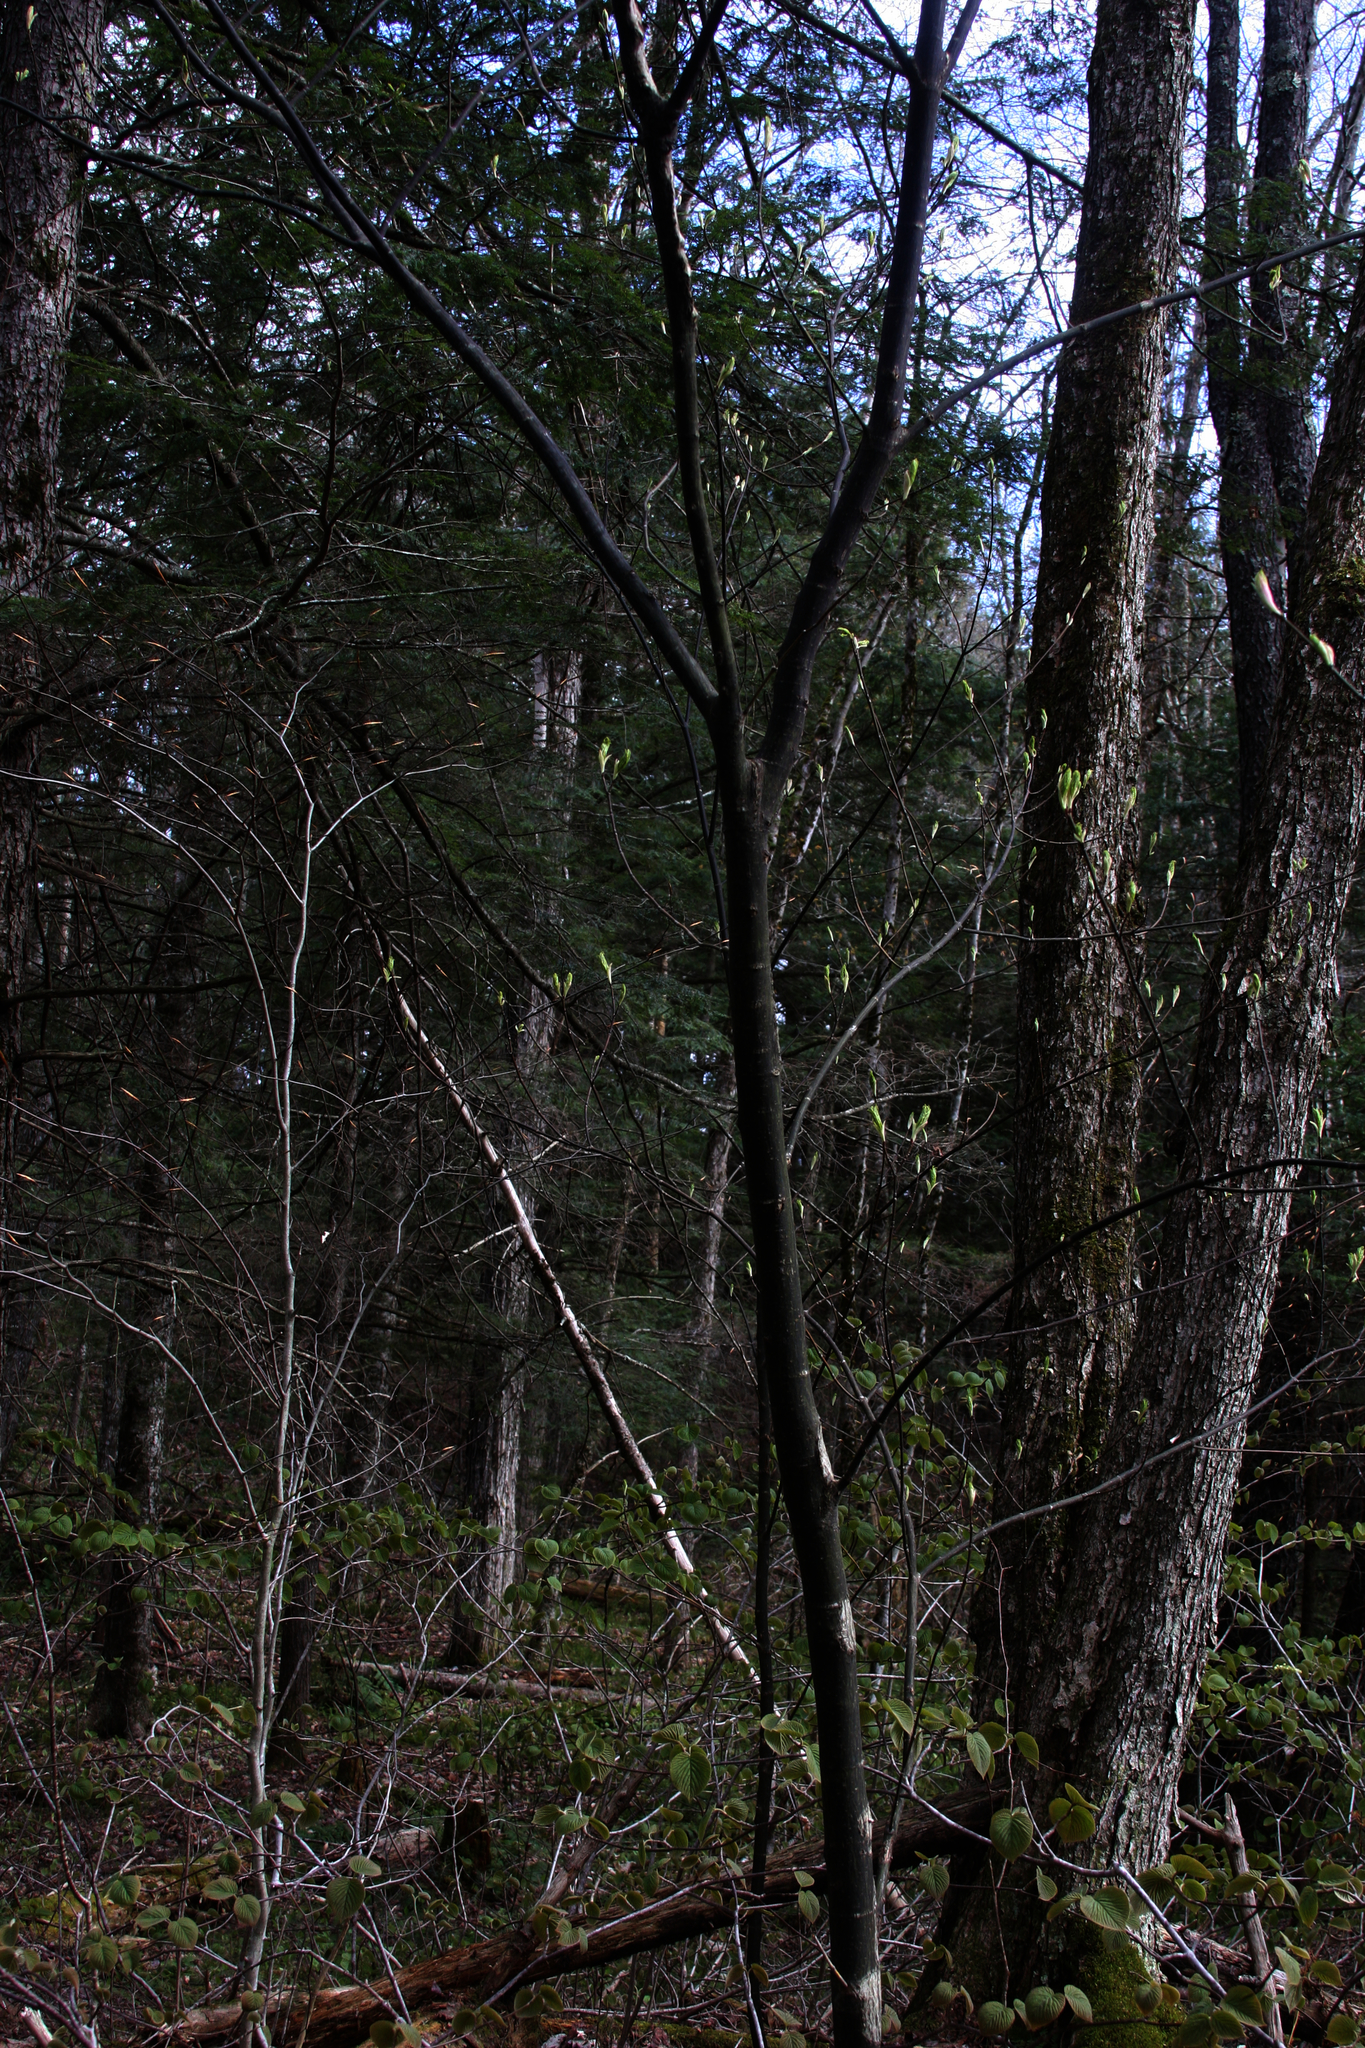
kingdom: Plantae
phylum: Tracheophyta
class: Magnoliopsida
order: Sapindales
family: Sapindaceae
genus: Acer
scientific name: Acer pensylvanicum
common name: Moosewood
